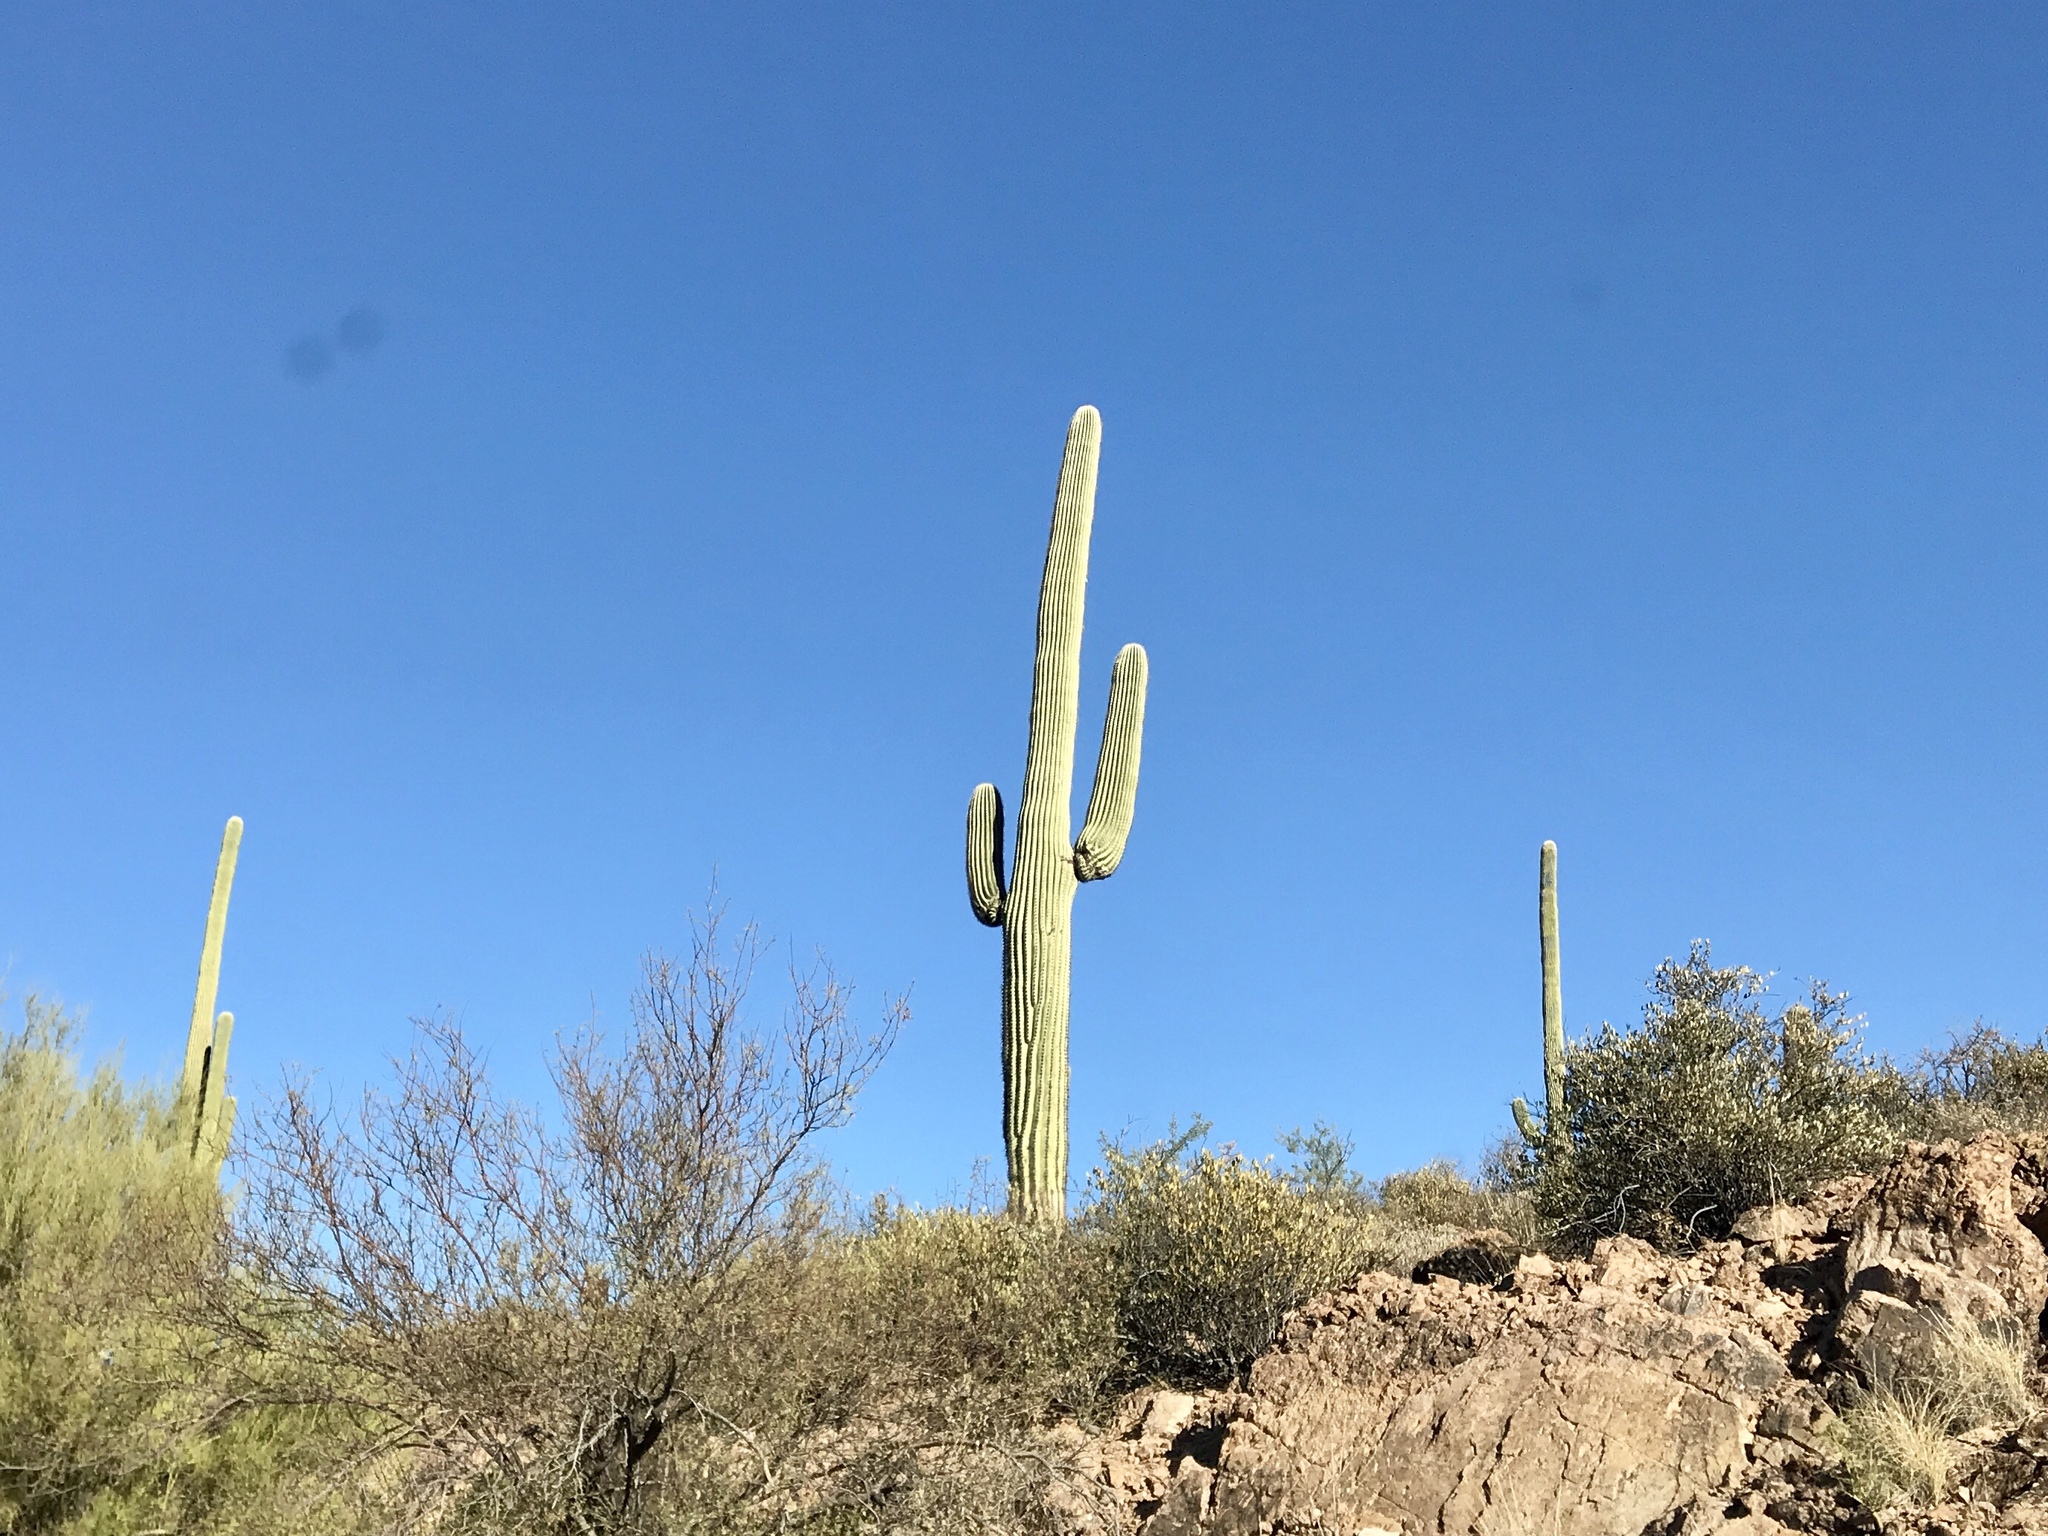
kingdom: Plantae
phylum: Tracheophyta
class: Magnoliopsida
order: Caryophyllales
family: Cactaceae
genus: Carnegiea
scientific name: Carnegiea gigantea
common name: Saguaro
